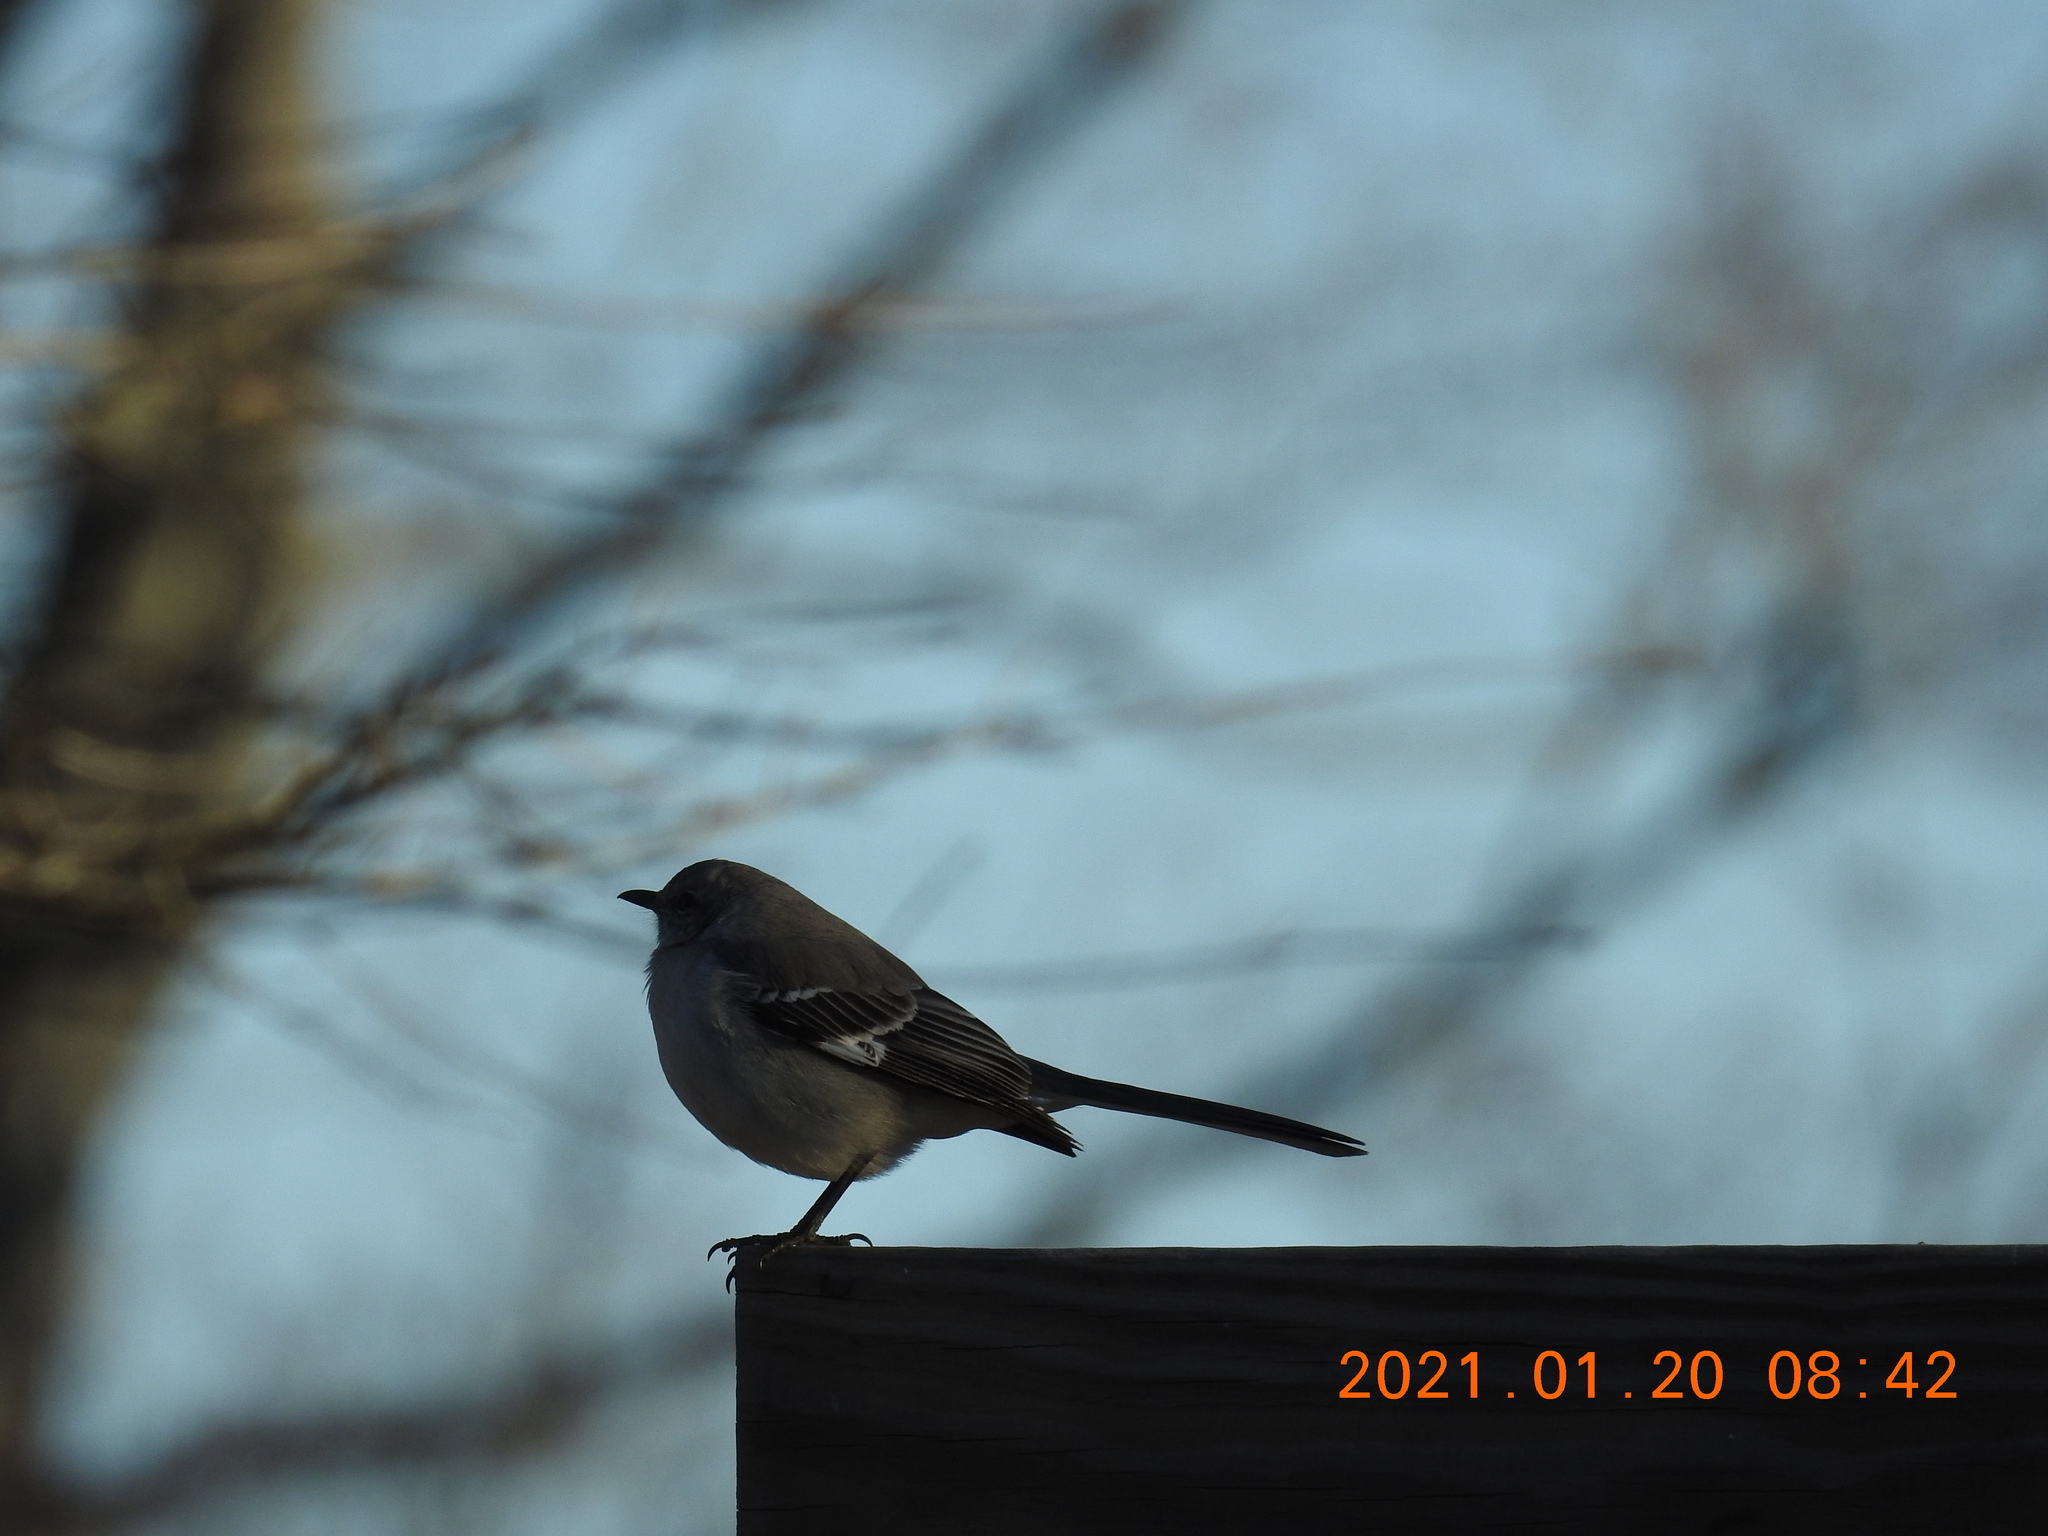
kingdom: Animalia
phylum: Chordata
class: Aves
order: Passeriformes
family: Mimidae
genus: Mimus
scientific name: Mimus polyglottos
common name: Northern mockingbird
